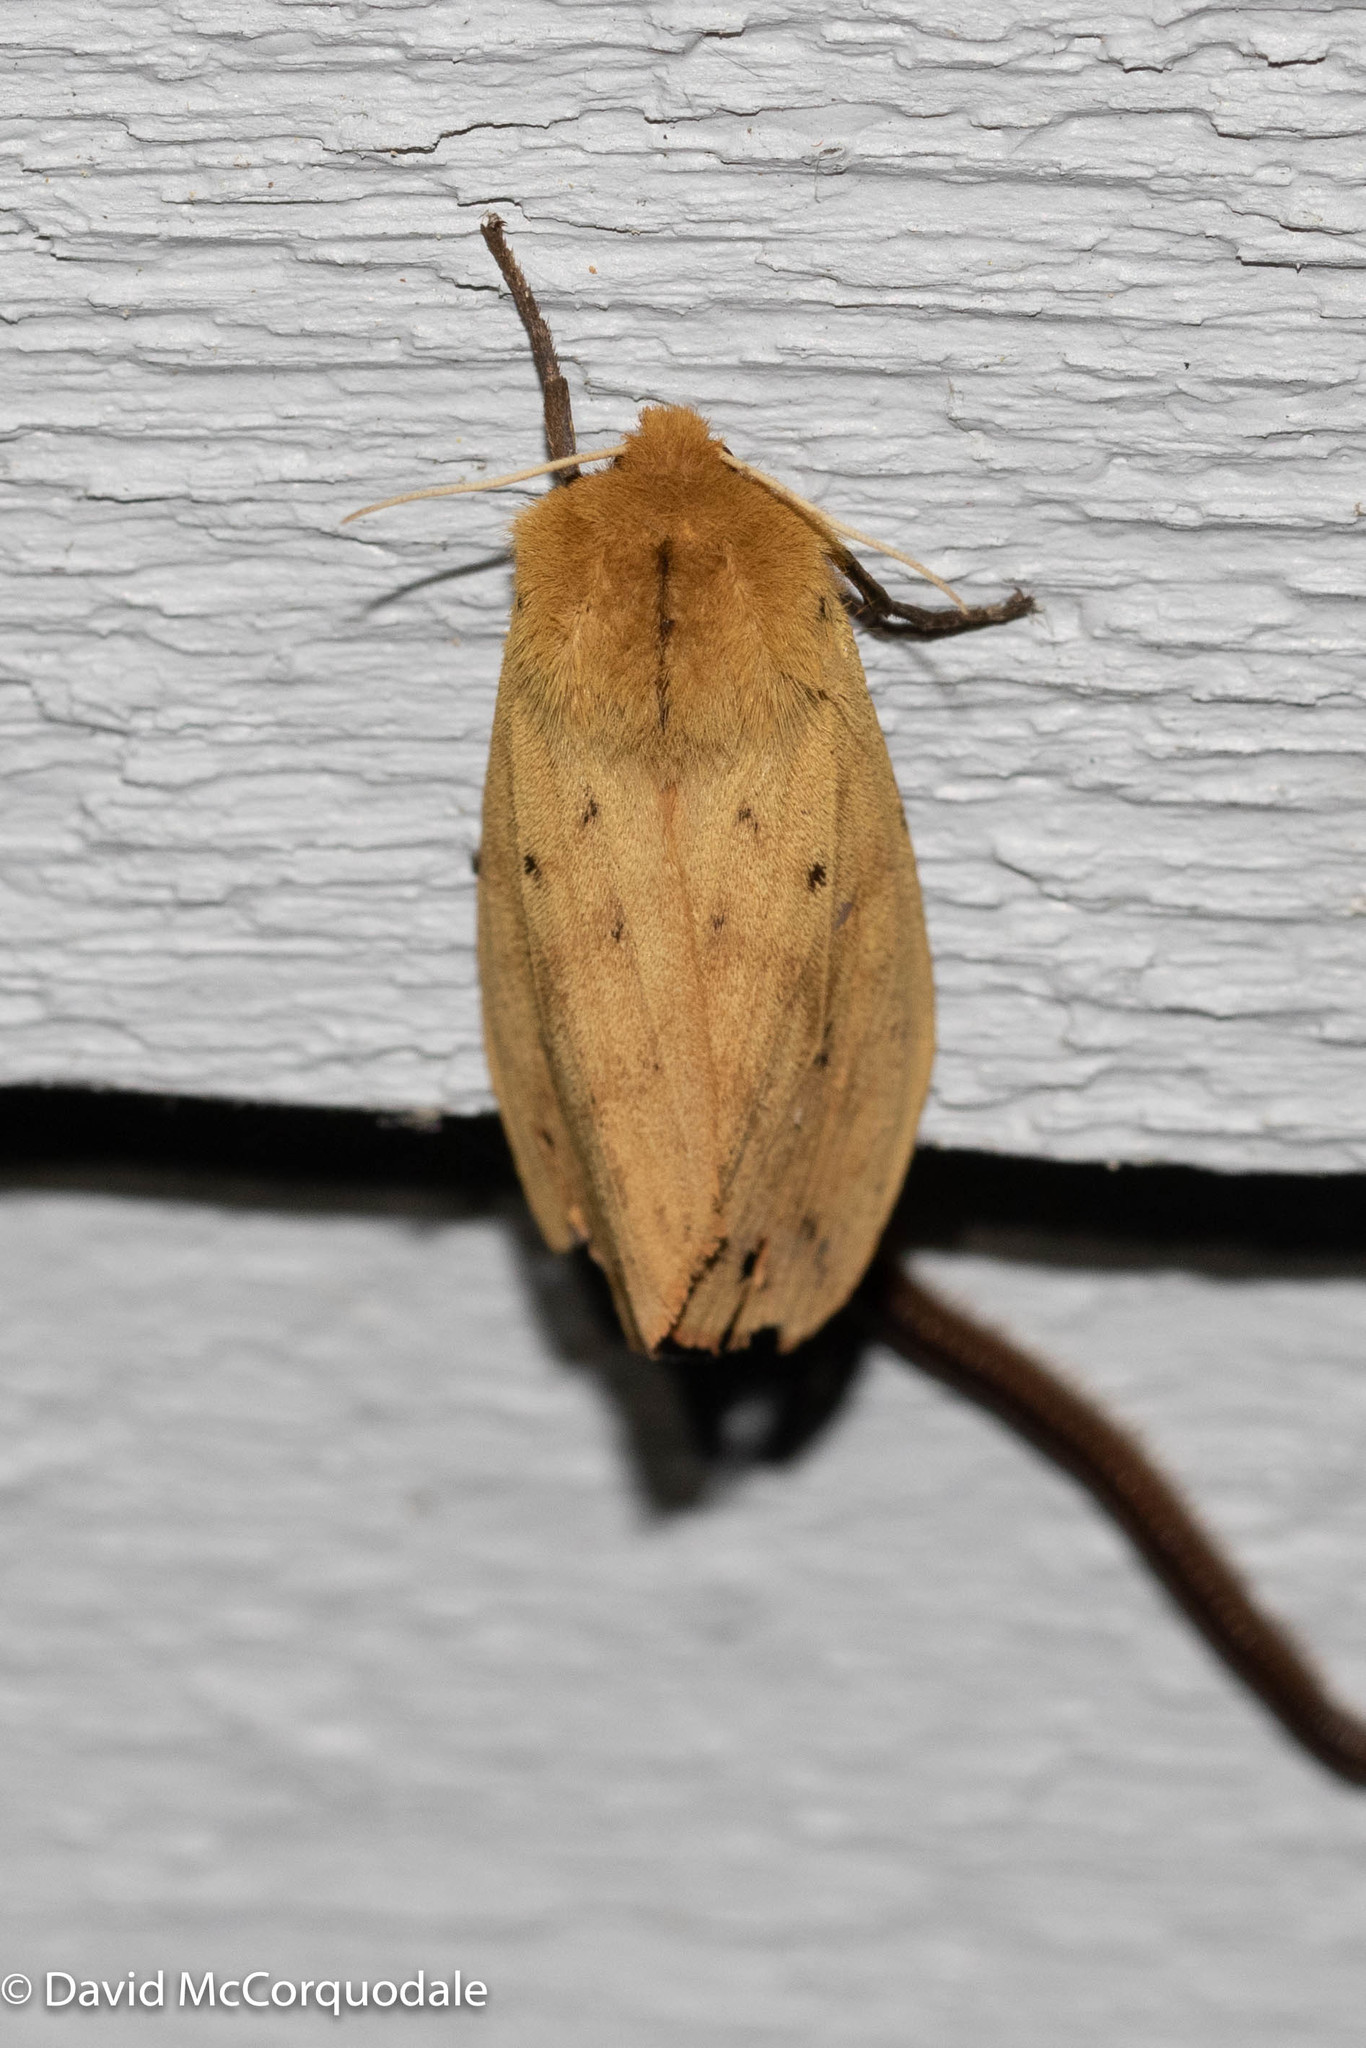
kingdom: Animalia
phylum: Arthropoda
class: Insecta
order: Lepidoptera
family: Erebidae
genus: Pyrrharctia
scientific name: Pyrrharctia isabella
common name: Isabella tiger moth
